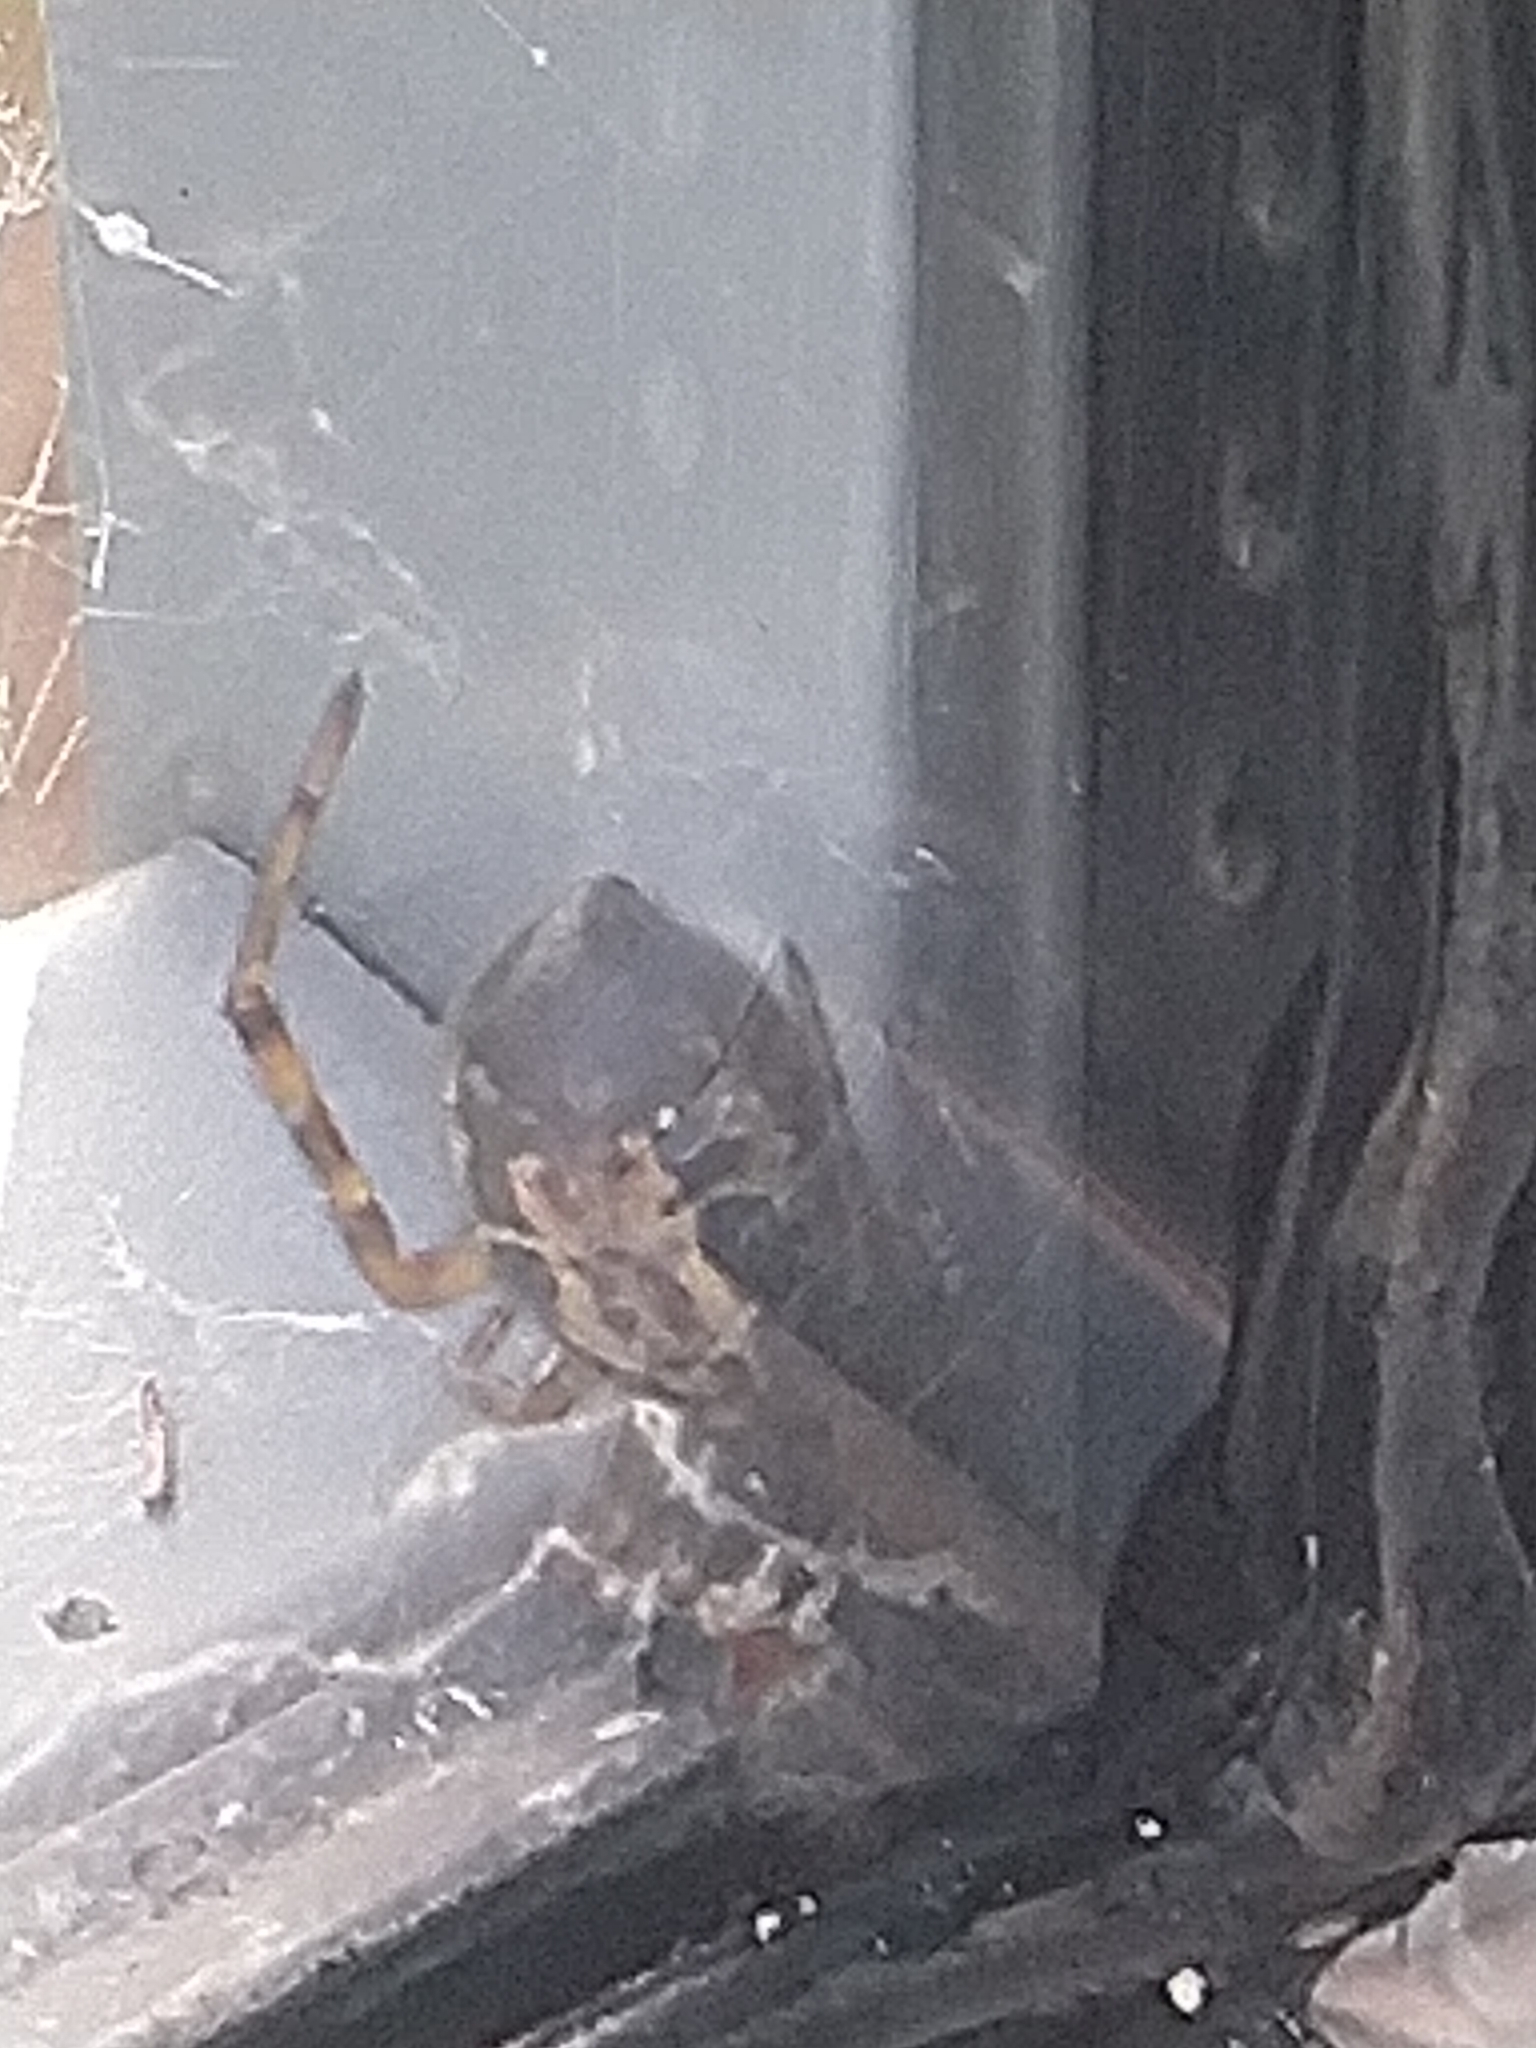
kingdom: Animalia
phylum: Arthropoda
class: Arachnida
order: Araneae
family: Theridiidae
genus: Steatoda
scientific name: Steatoda nobilis
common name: Cobweb weaver
